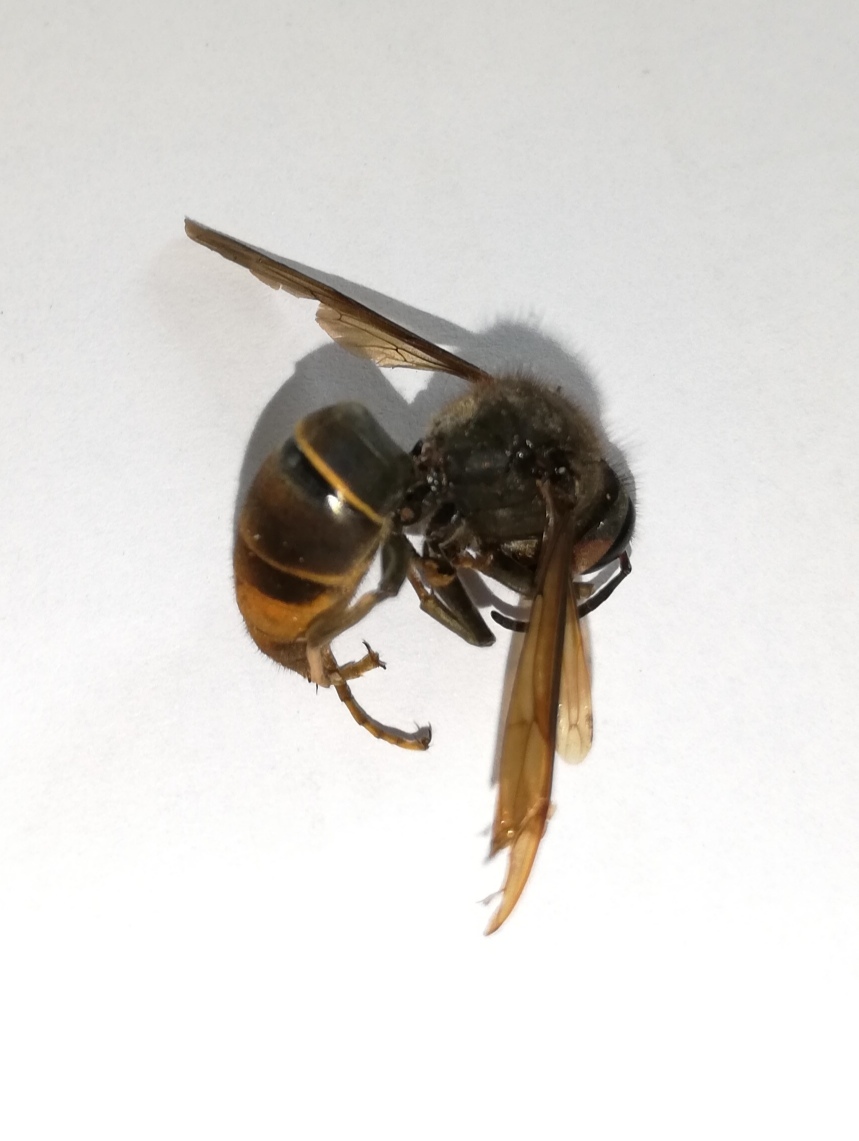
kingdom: Animalia
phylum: Arthropoda
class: Insecta
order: Hymenoptera
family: Vespidae
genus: Vespa
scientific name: Vespa velutina
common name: Asian hornet
